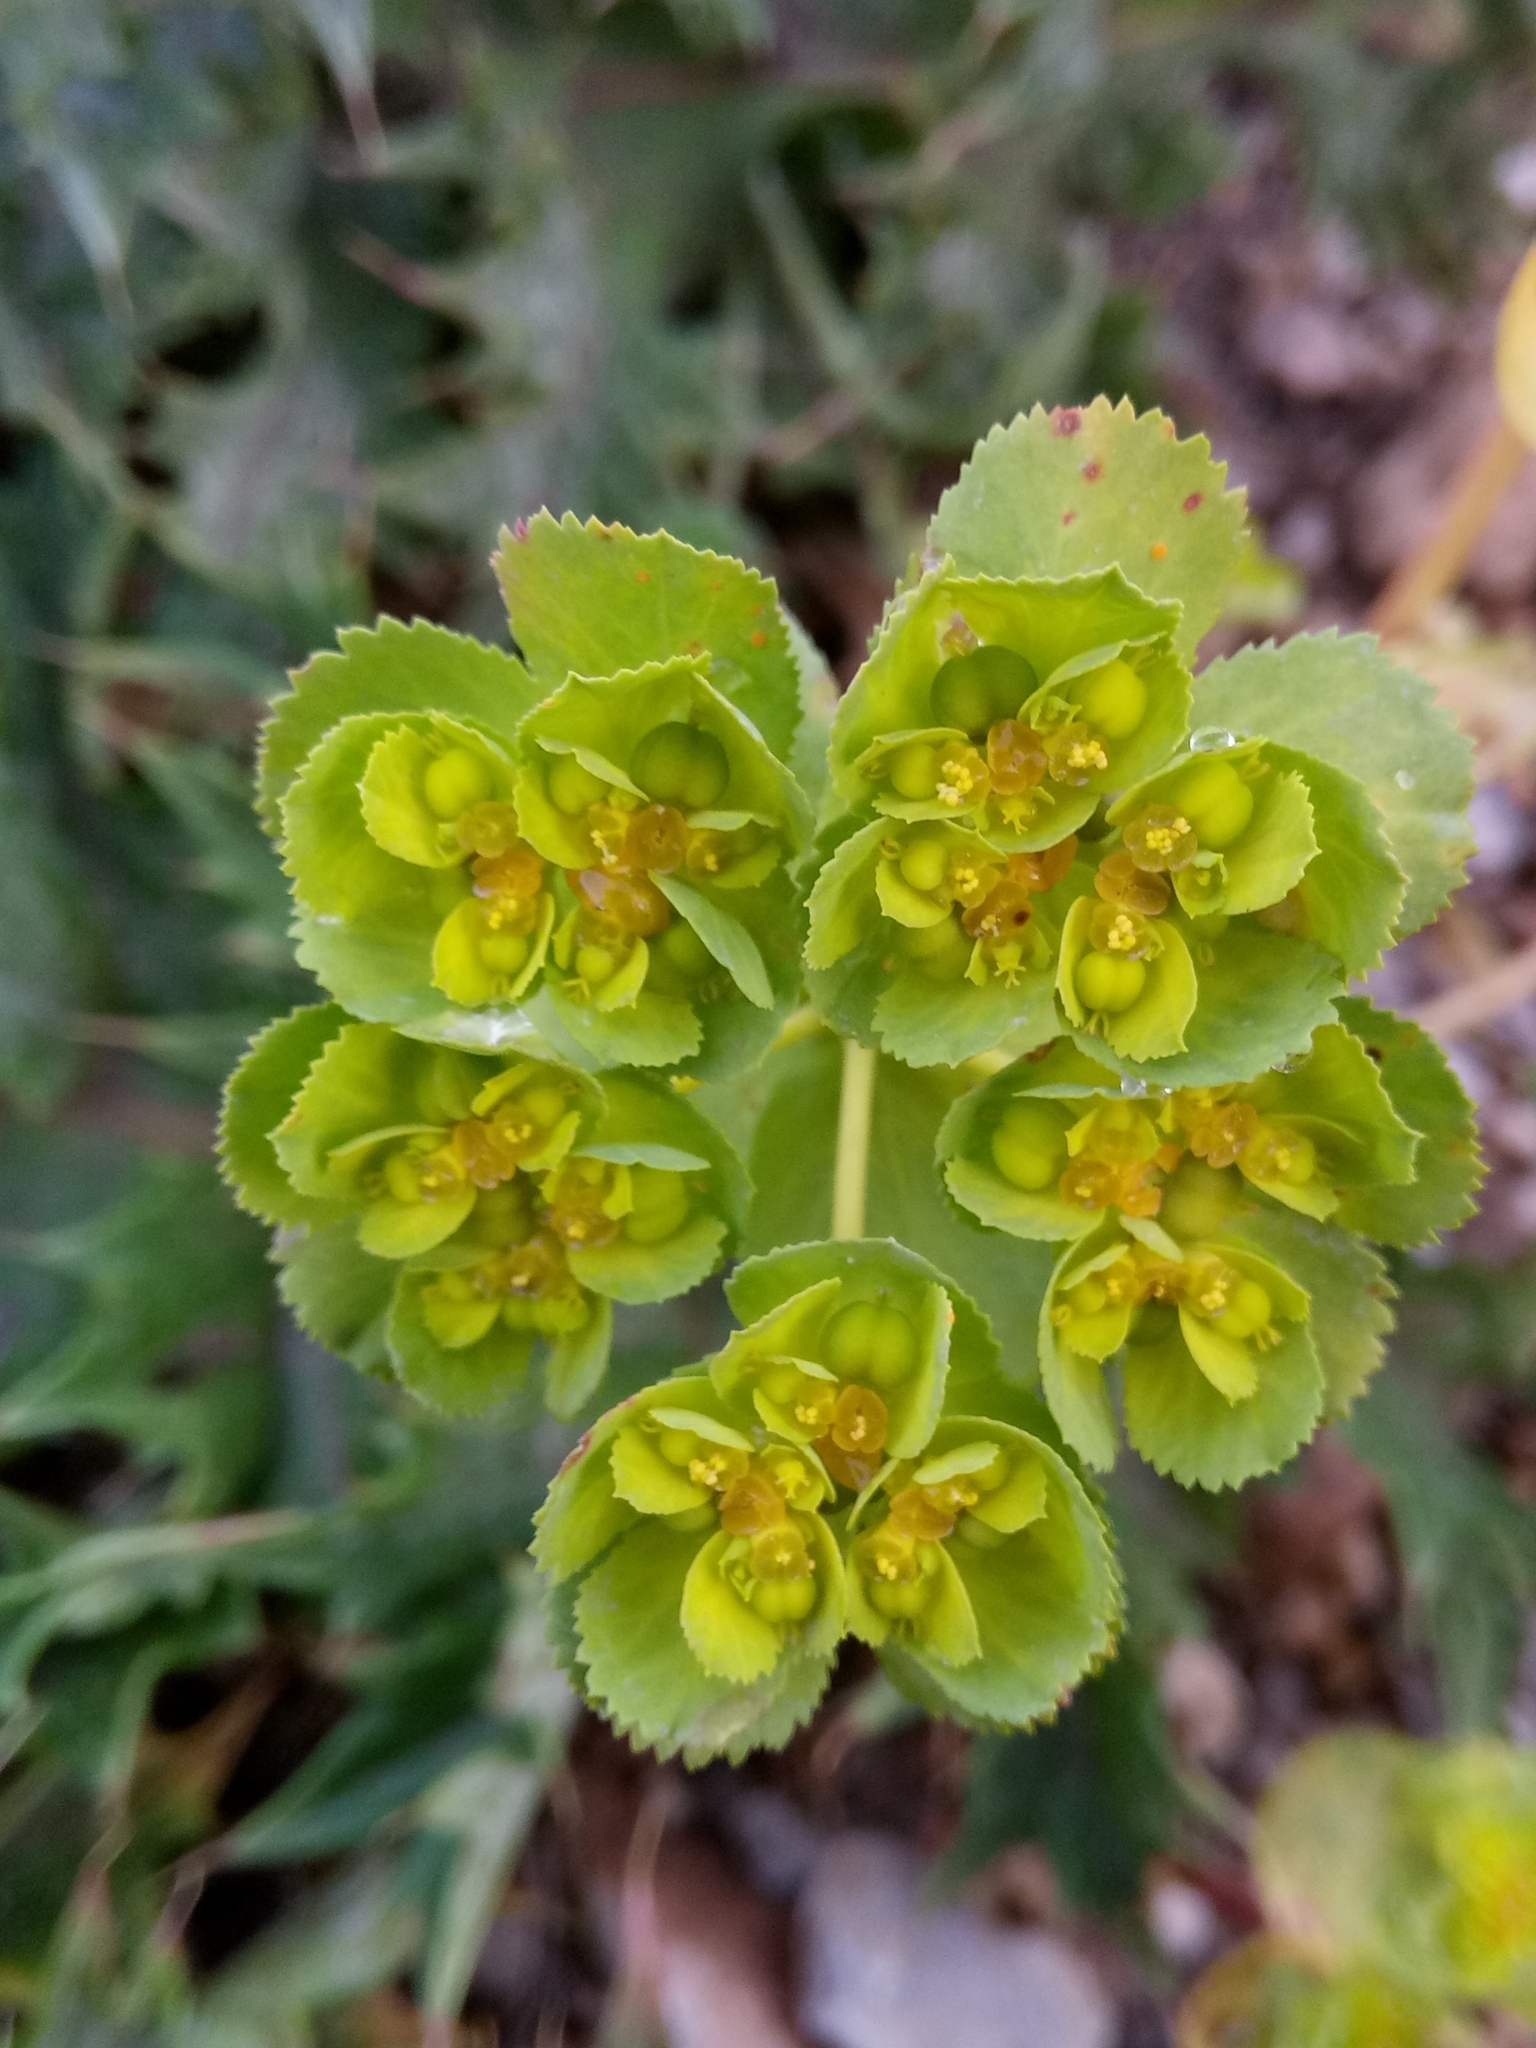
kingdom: Plantae
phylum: Tracheophyta
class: Magnoliopsida
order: Malpighiales
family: Euphorbiaceae
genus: Euphorbia
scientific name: Euphorbia helioscopia
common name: Sun spurge
